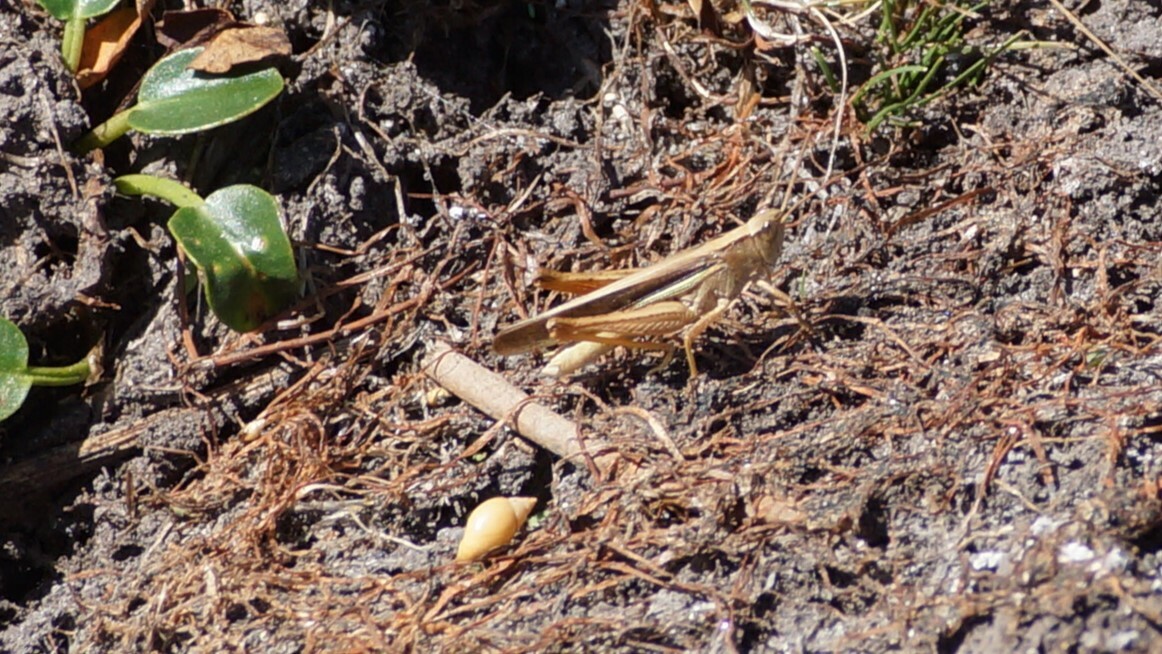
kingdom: Animalia
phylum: Arthropoda
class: Insecta
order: Orthoptera
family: Acrididae
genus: Schizobothrus
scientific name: Schizobothrus flavovittatus
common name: Disappearing grasshopper
